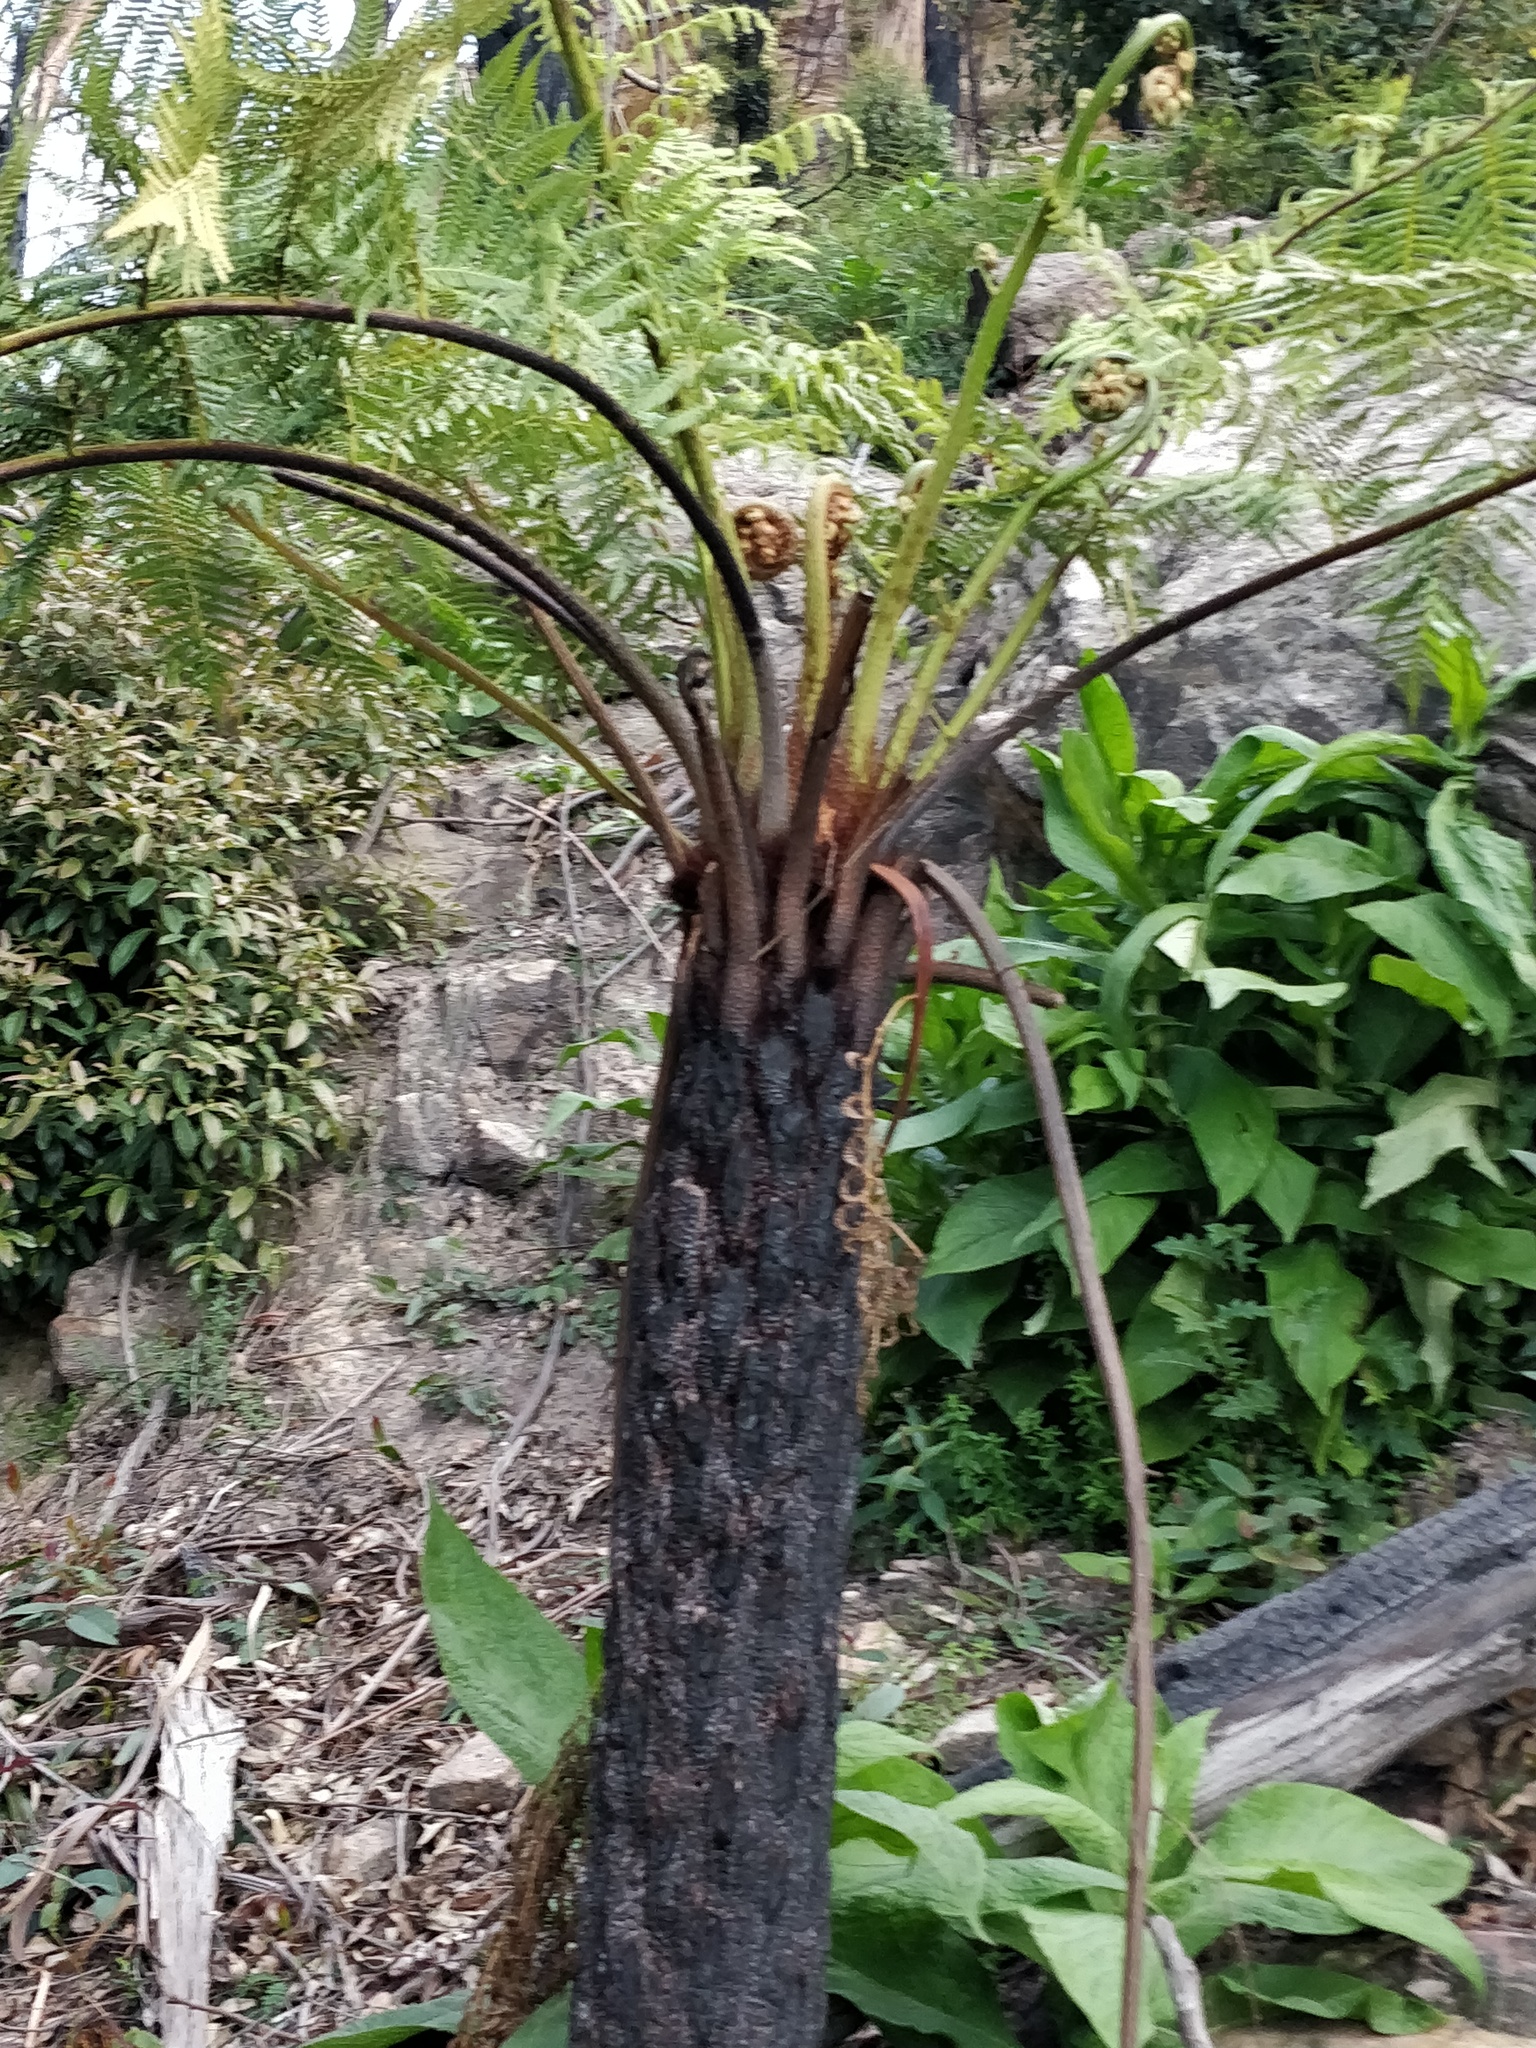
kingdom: Plantae
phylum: Tracheophyta
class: Polypodiopsida
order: Cyatheales
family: Cyatheaceae
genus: Alsophila
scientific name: Alsophila australis
